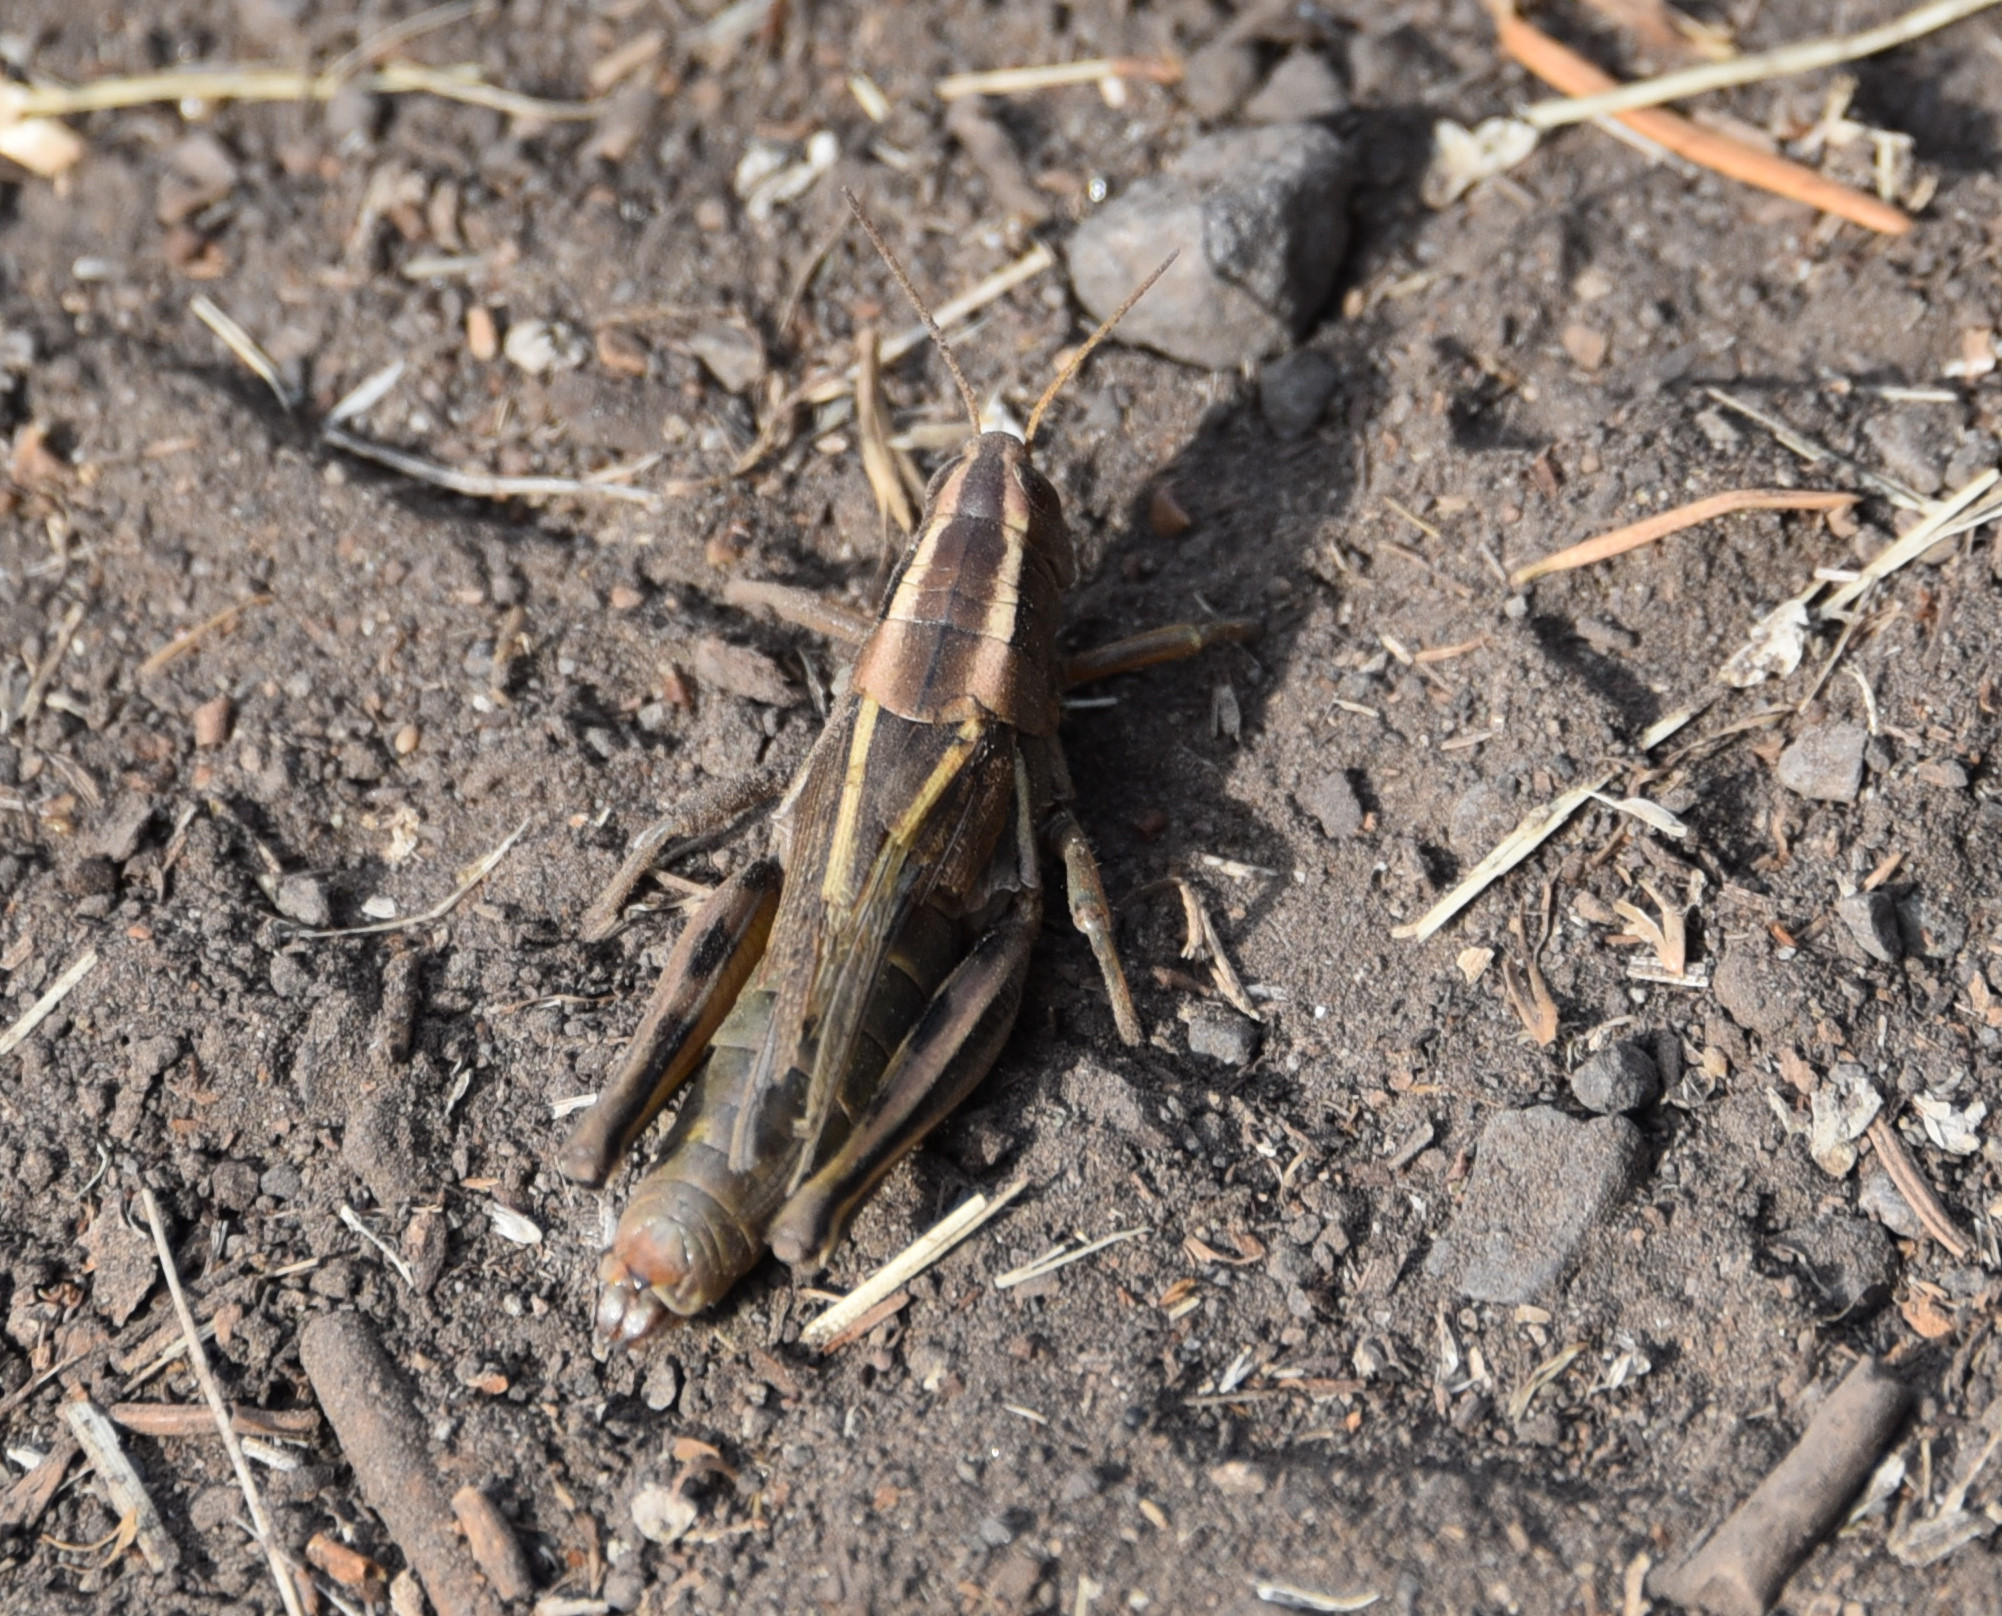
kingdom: Animalia
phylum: Arthropoda
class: Insecta
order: Orthoptera
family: Acrididae
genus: Melanoplus
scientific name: Melanoplus bivittatus
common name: Two-striped grasshopper
